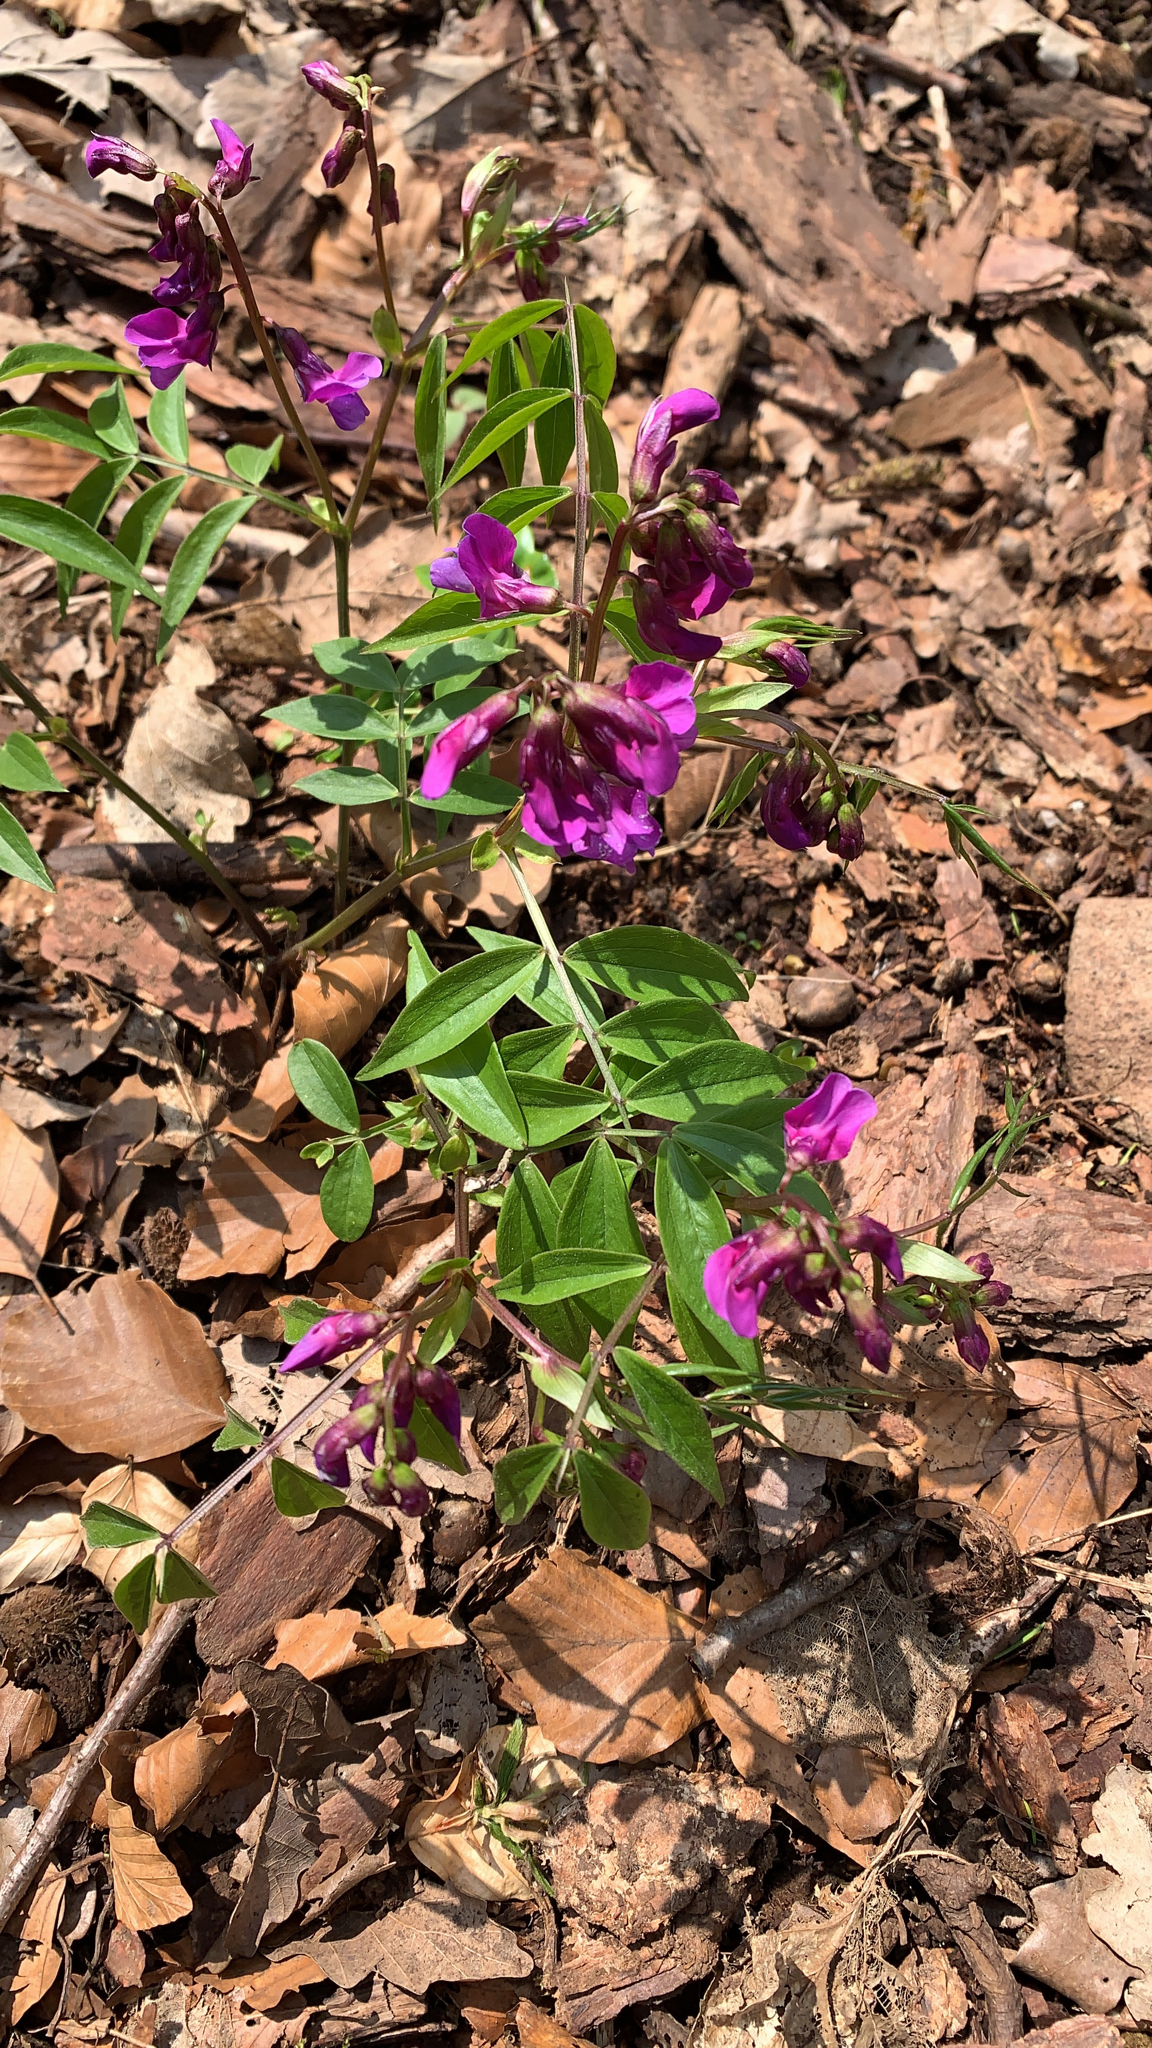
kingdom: Plantae
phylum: Tracheophyta
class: Magnoliopsida
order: Fabales
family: Fabaceae
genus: Lathyrus
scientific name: Lathyrus vernus
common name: Spring pea
